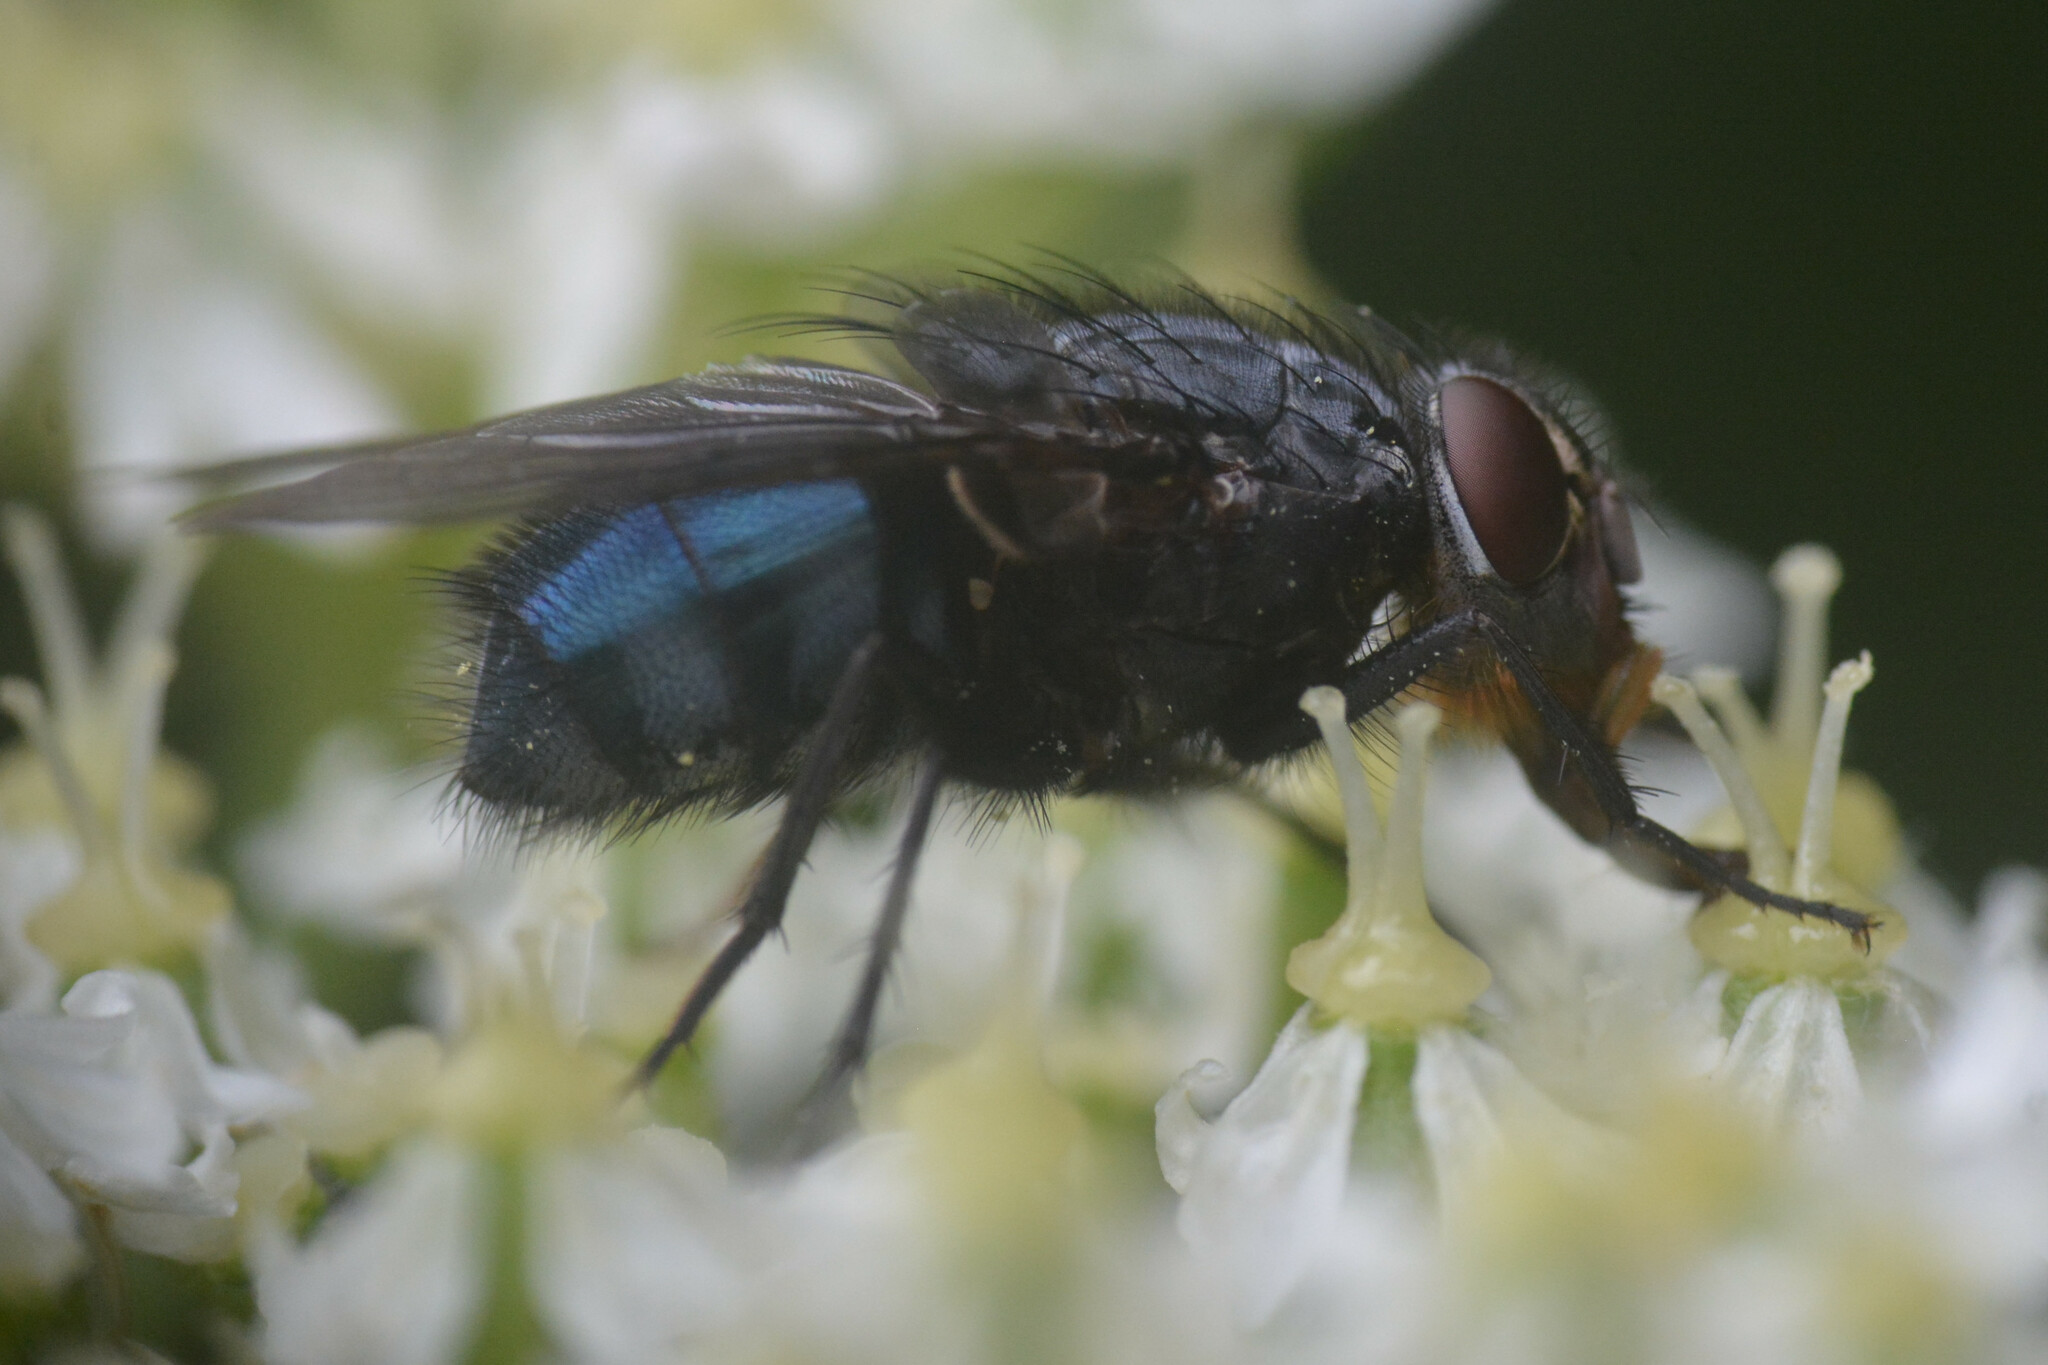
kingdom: Animalia
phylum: Arthropoda
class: Insecta
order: Diptera
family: Calliphoridae
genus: Calliphora
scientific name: Calliphora vomitoria
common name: Blue bottle fly
